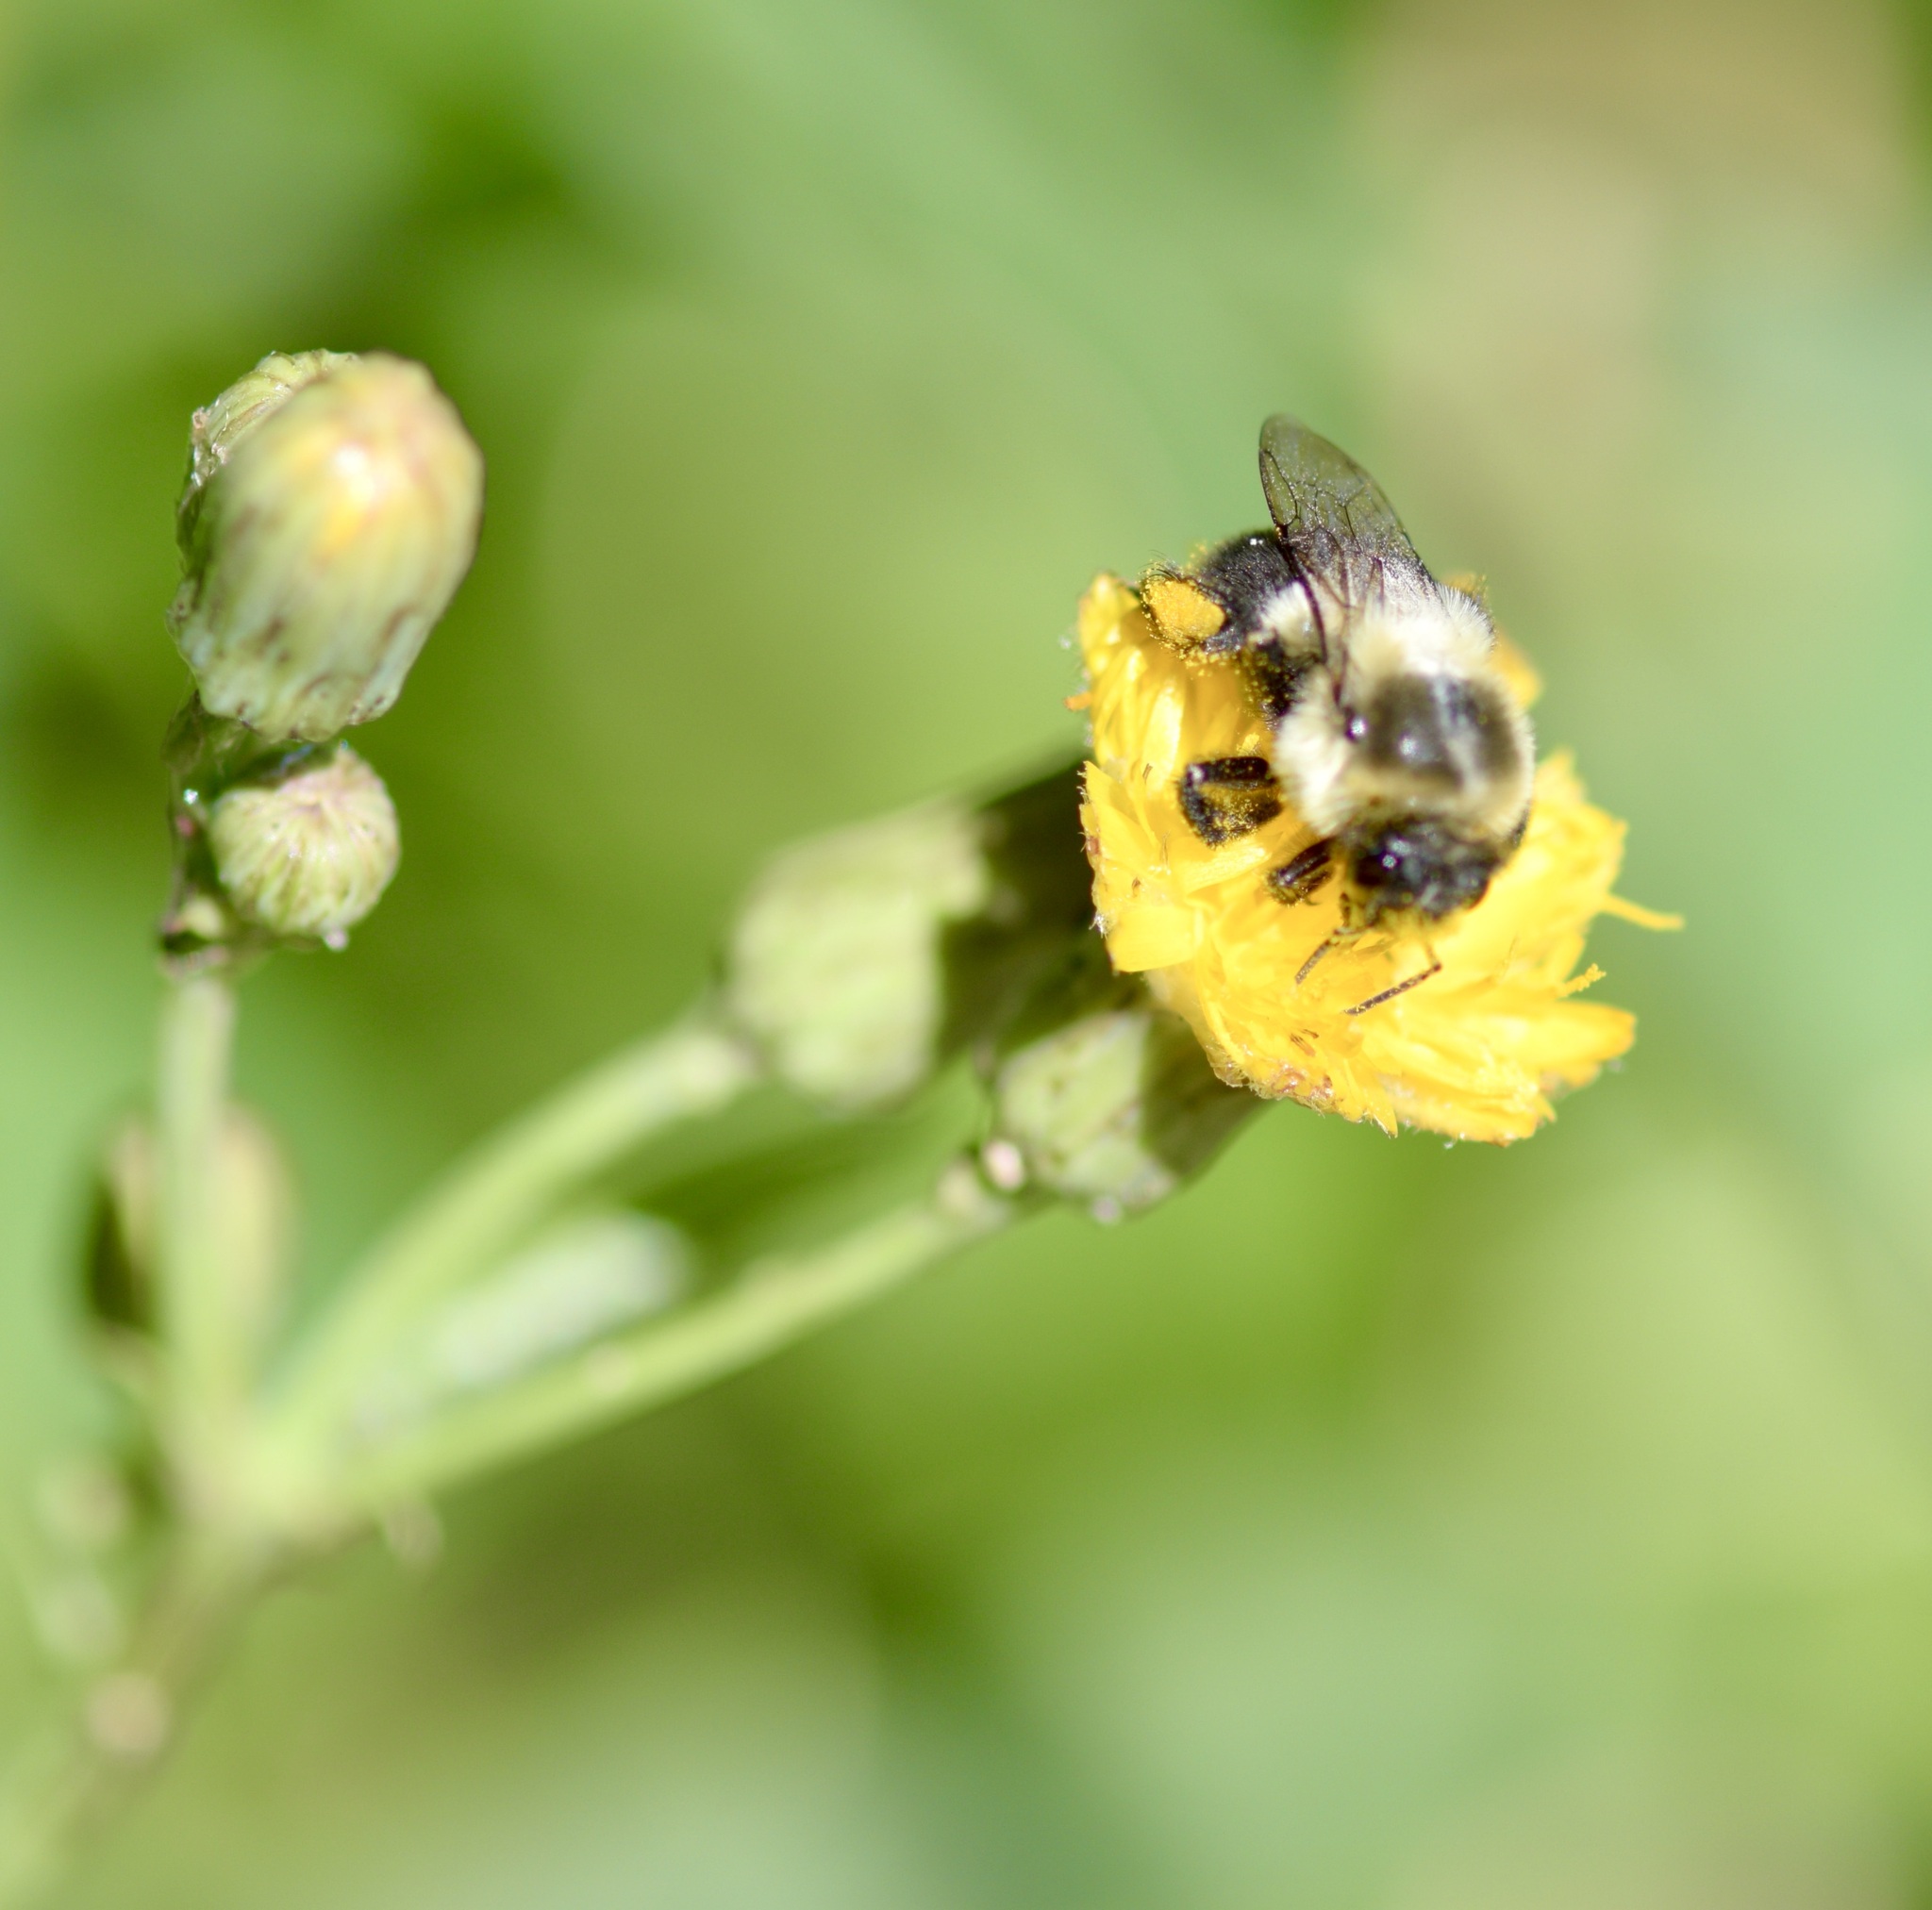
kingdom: Animalia
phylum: Arthropoda
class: Insecta
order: Hymenoptera
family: Apidae
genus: Bombus
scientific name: Bombus impatiens
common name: Common eastern bumble bee
